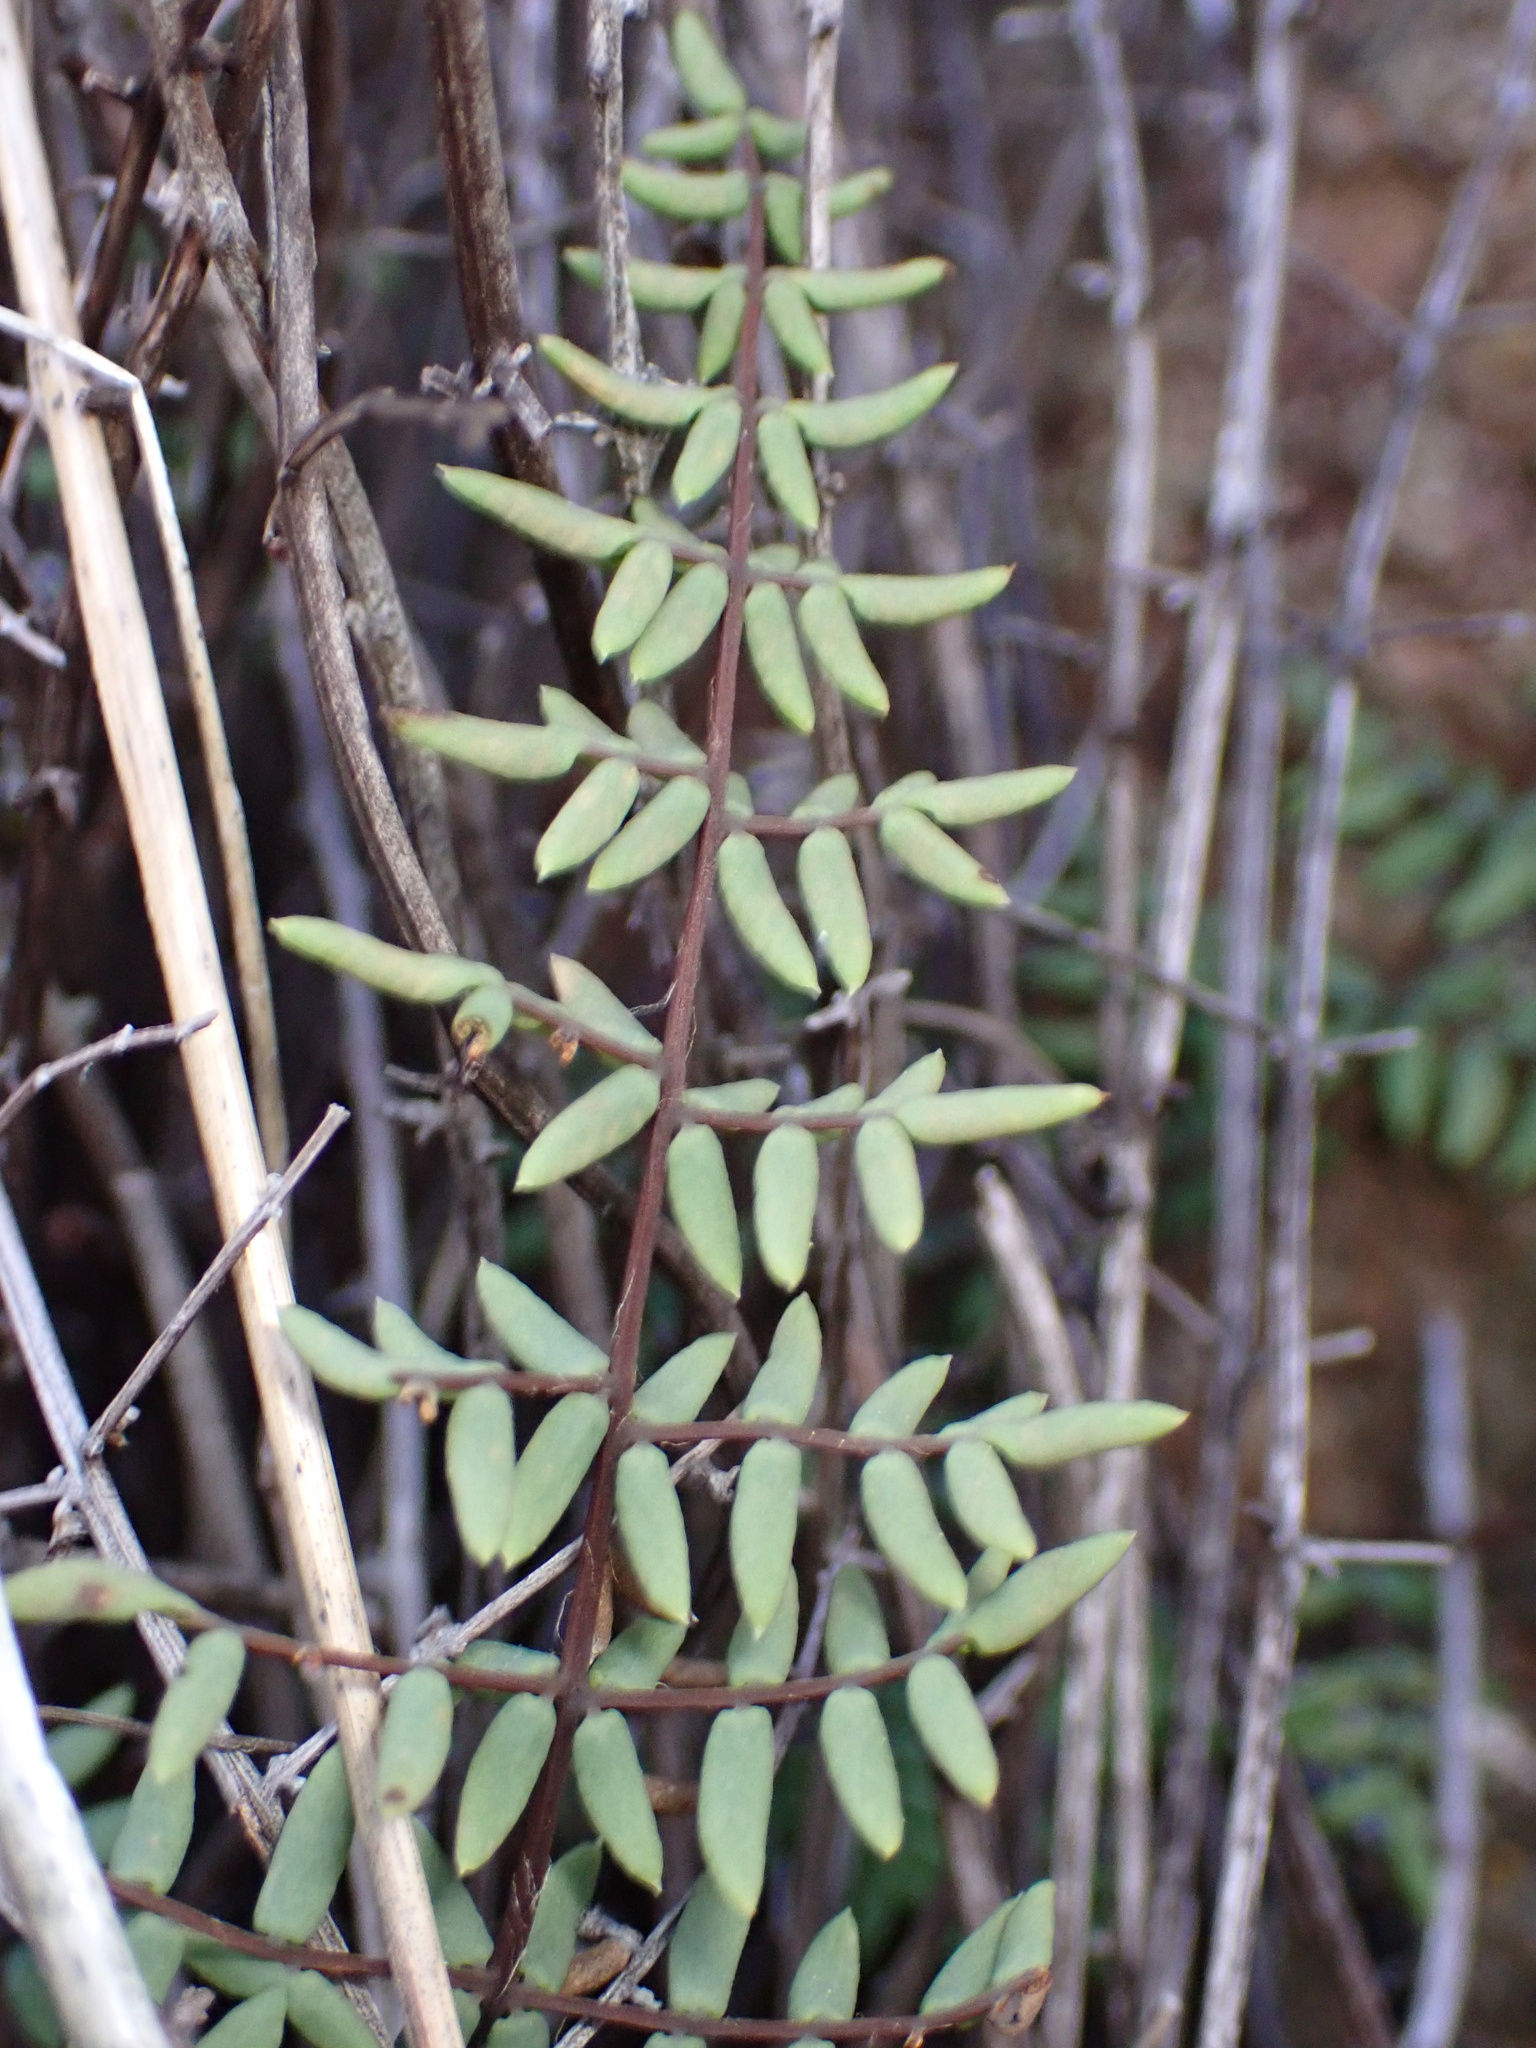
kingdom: Plantae
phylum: Tracheophyta
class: Polypodiopsida
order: Polypodiales
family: Pteridaceae
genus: Pellaea
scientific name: Pellaea mucronata
